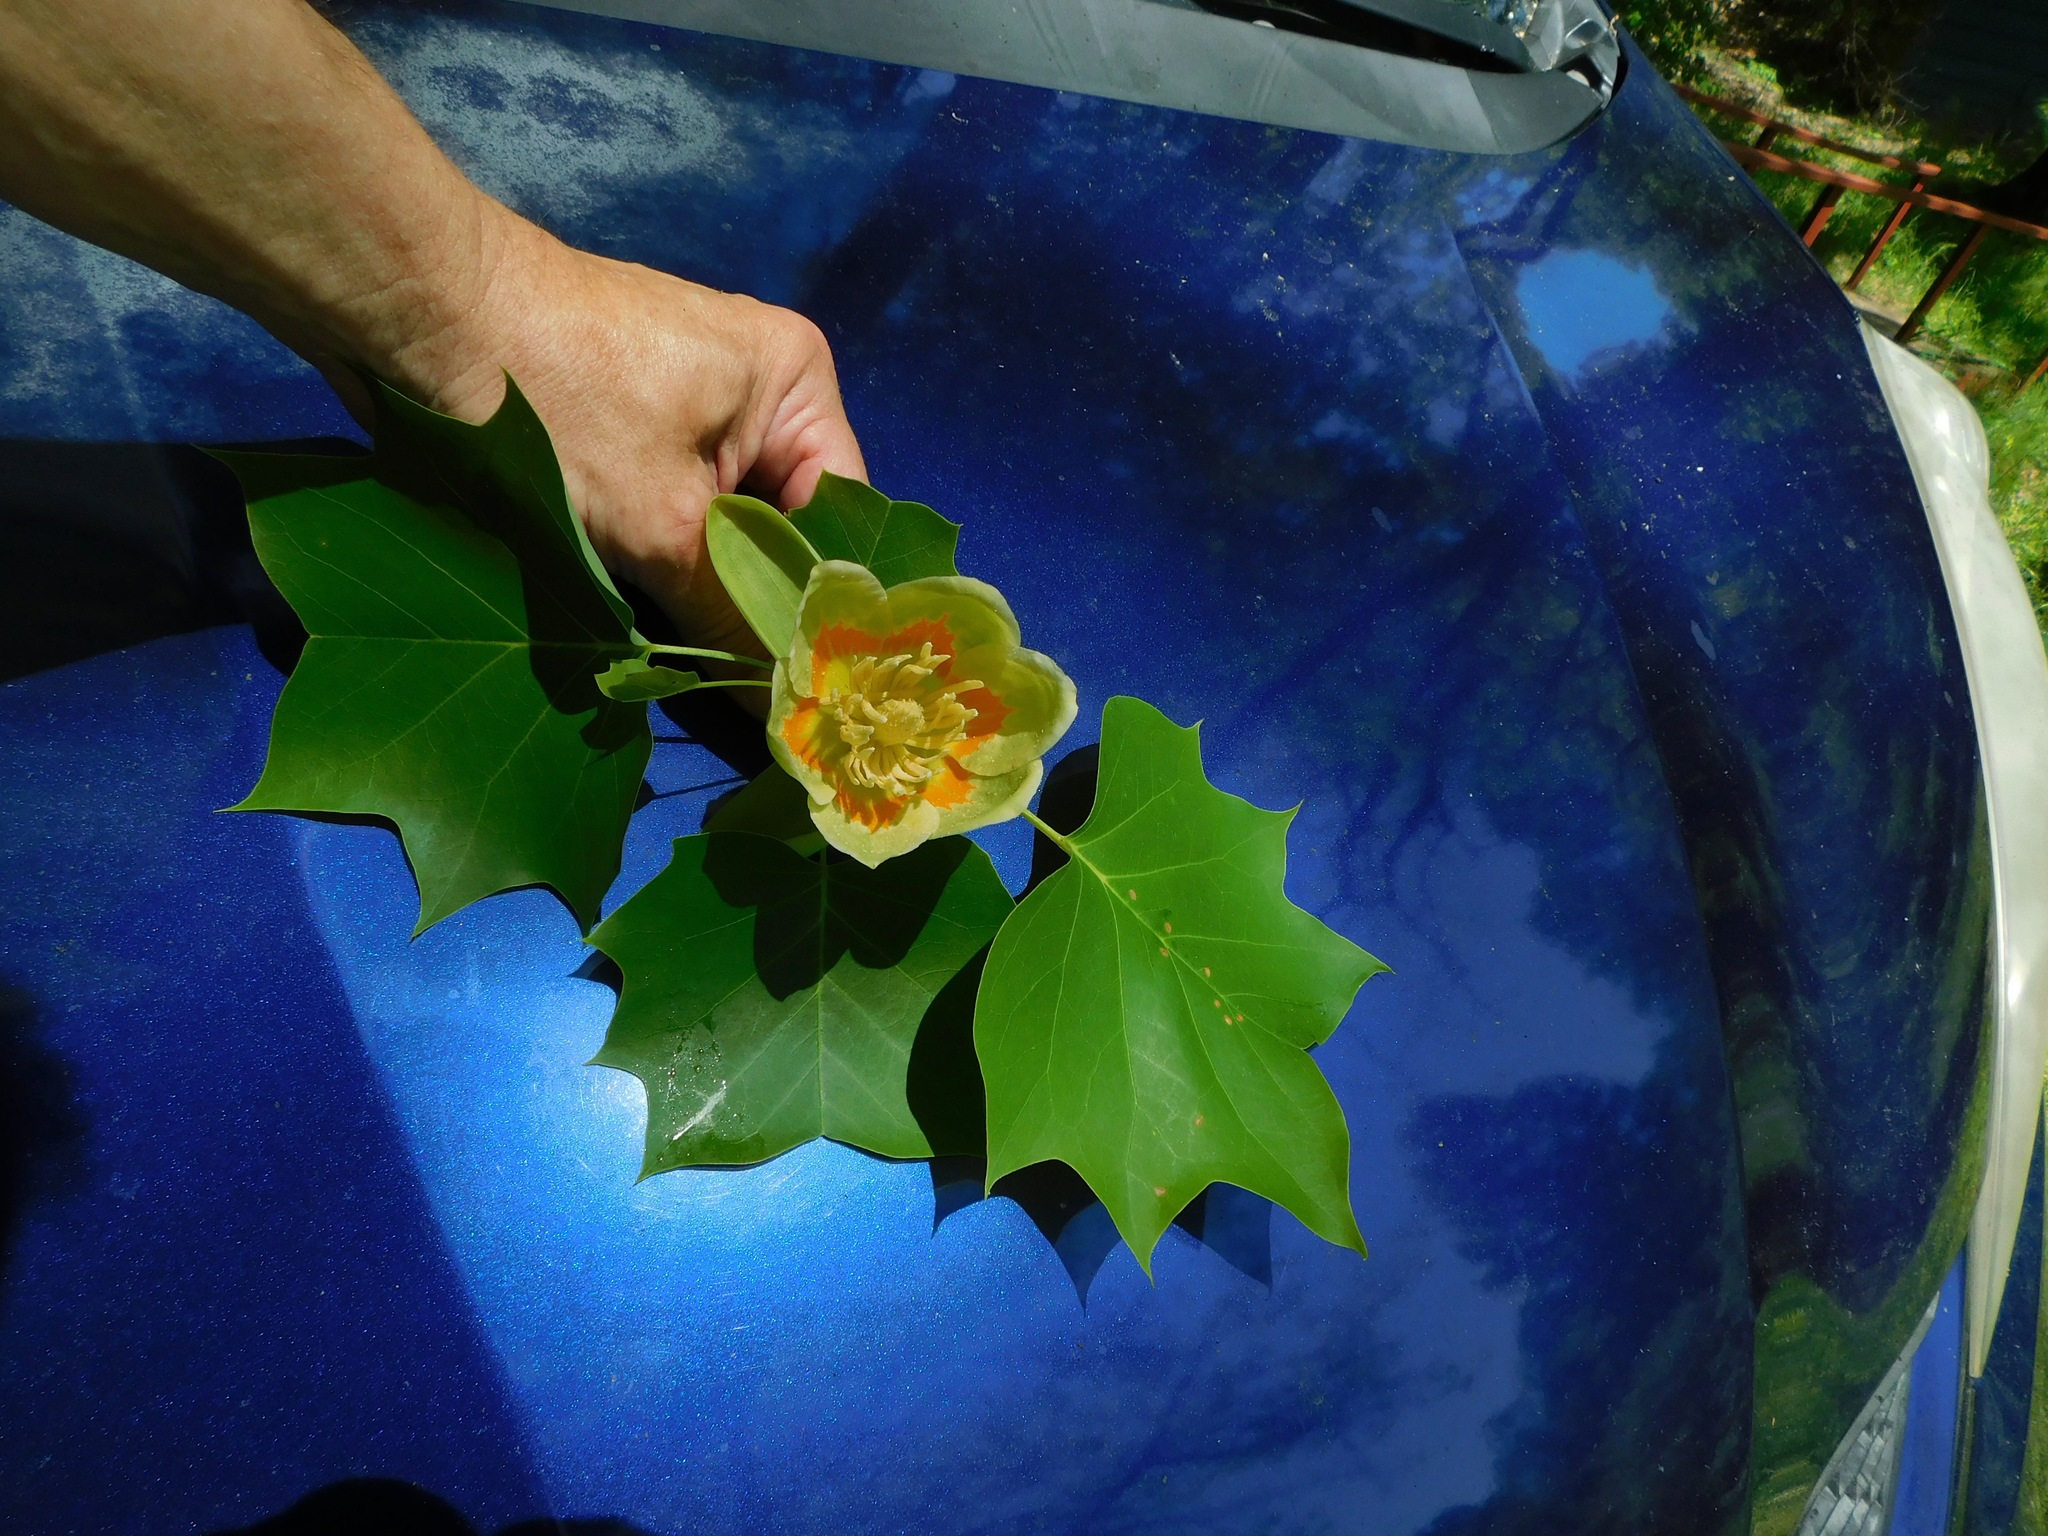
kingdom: Plantae
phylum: Tracheophyta
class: Magnoliopsida
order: Magnoliales
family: Magnoliaceae
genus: Liriodendron
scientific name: Liriodendron tulipifera
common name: Tulip tree
